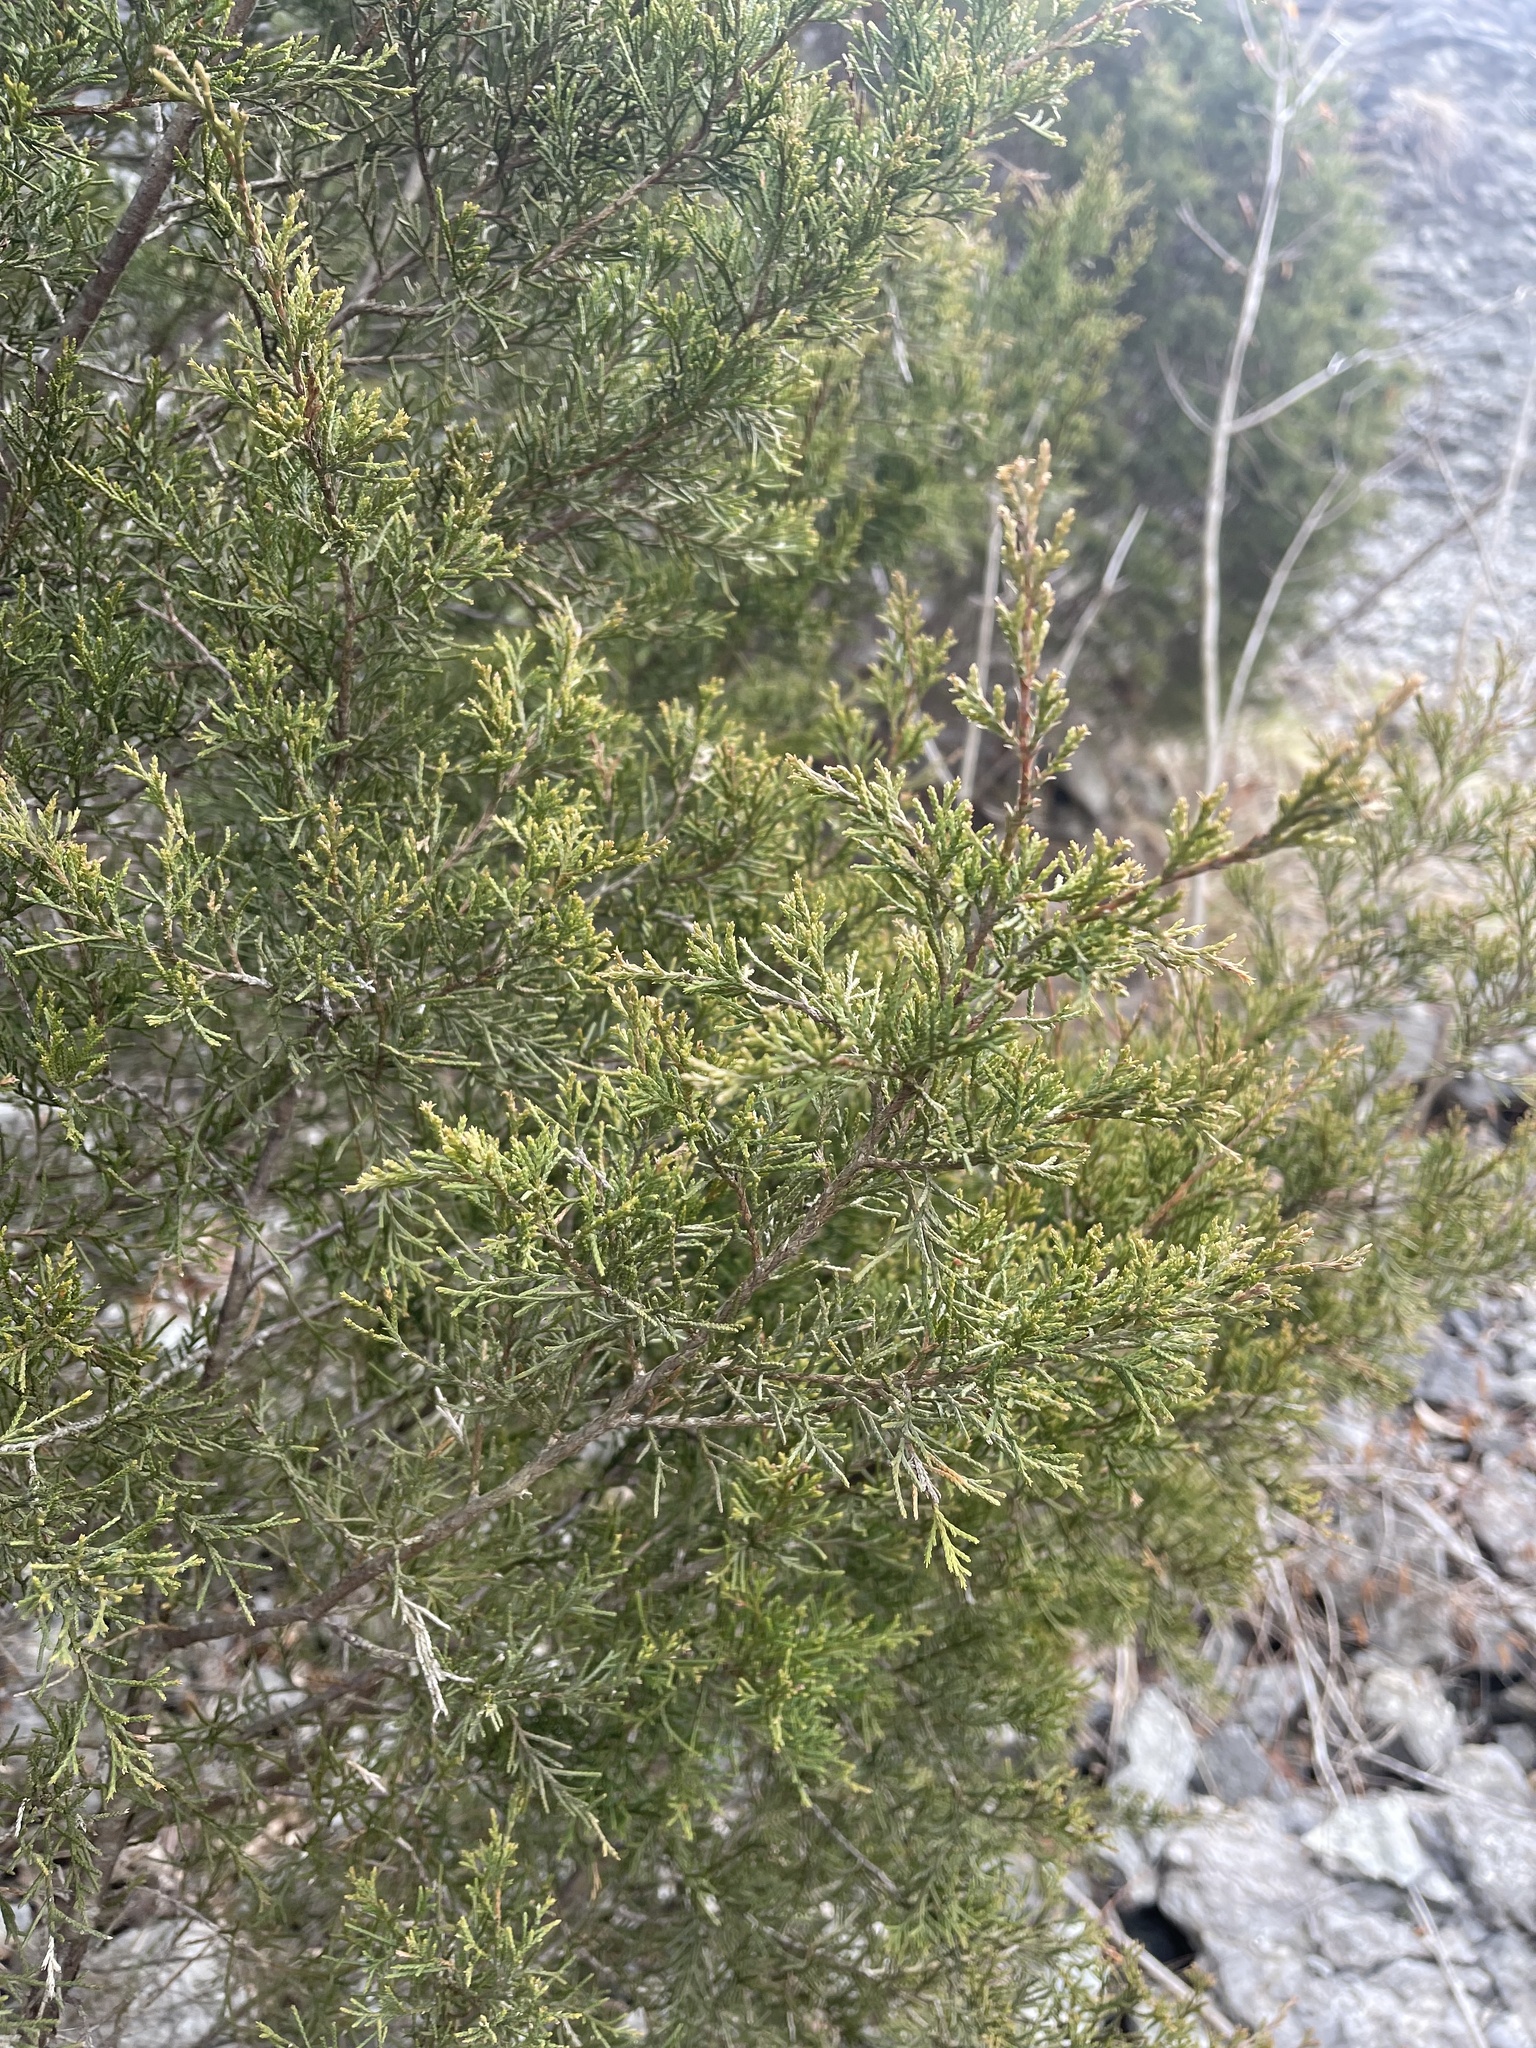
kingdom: Plantae
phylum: Tracheophyta
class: Pinopsida
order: Pinales
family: Cupressaceae
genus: Juniperus
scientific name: Juniperus virginiana
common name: Red juniper
